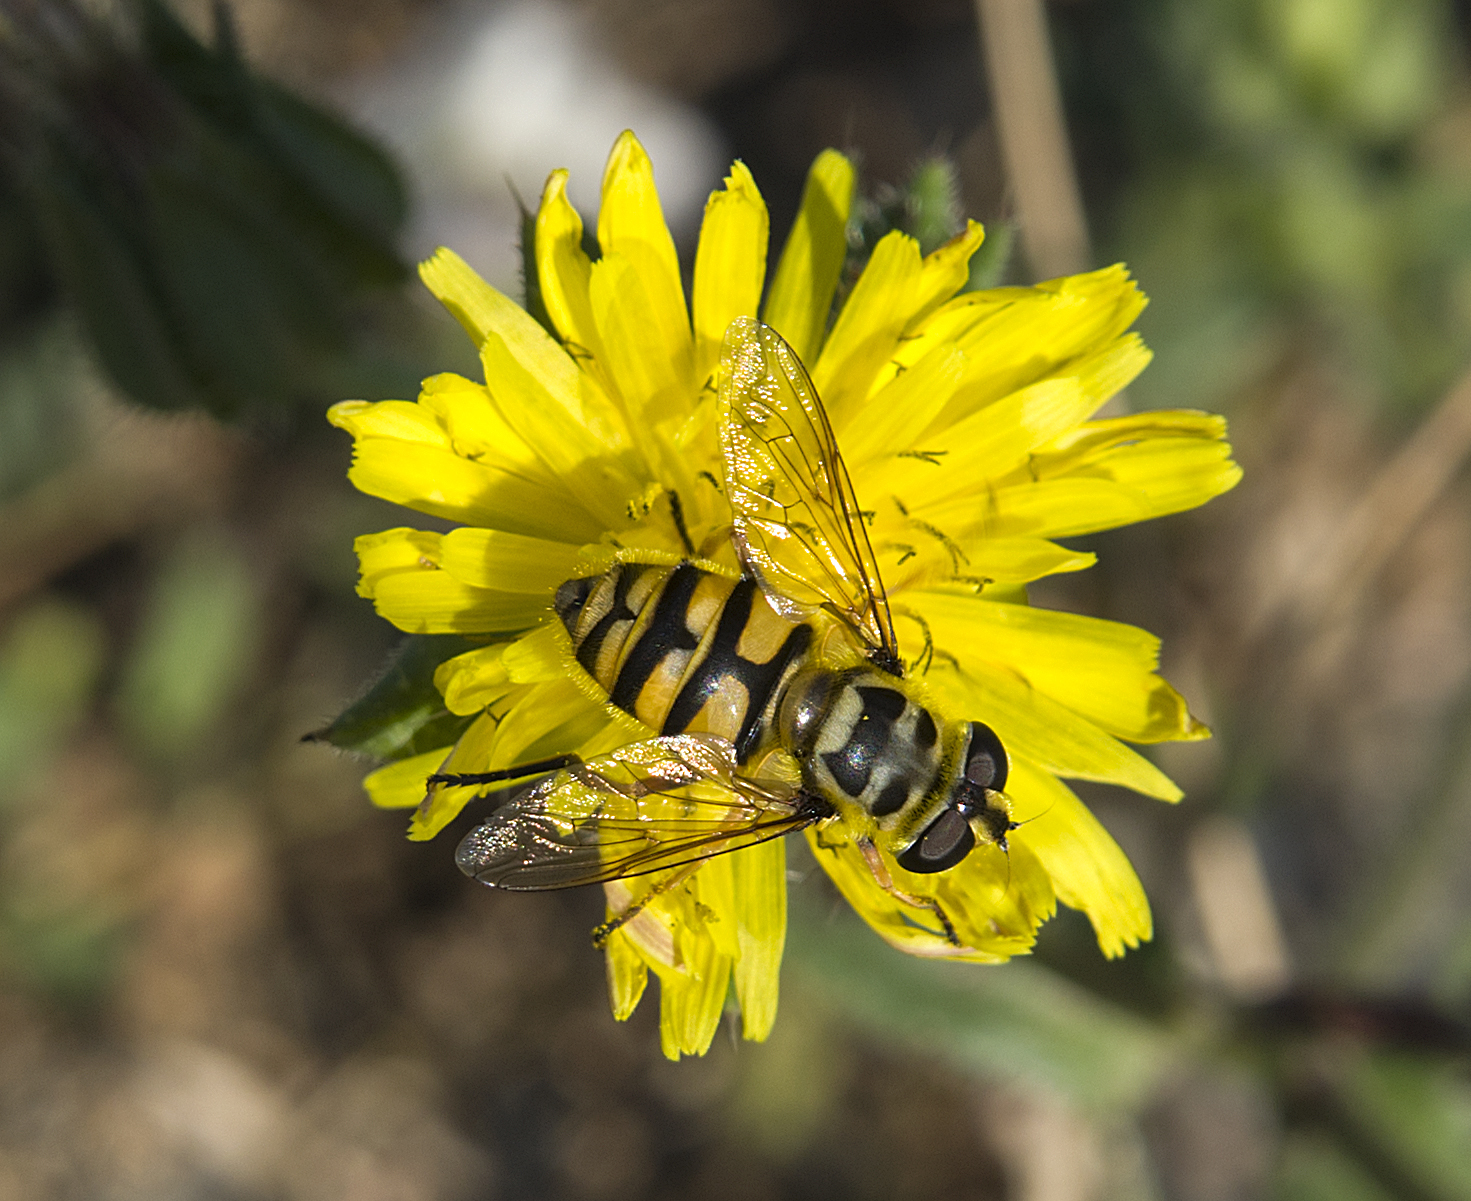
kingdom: Animalia
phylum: Arthropoda
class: Insecta
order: Diptera
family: Syrphidae
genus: Myathropa
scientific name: Myathropa florea
